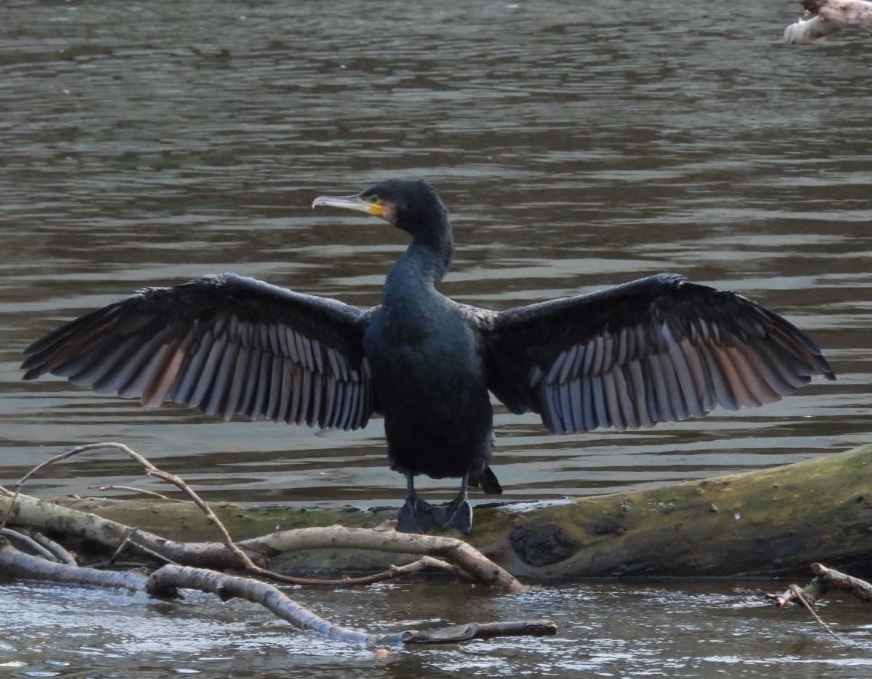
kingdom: Animalia
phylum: Chordata
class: Aves
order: Suliformes
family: Phalacrocoracidae
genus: Phalacrocorax
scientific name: Phalacrocorax carbo
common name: Great cormorant
